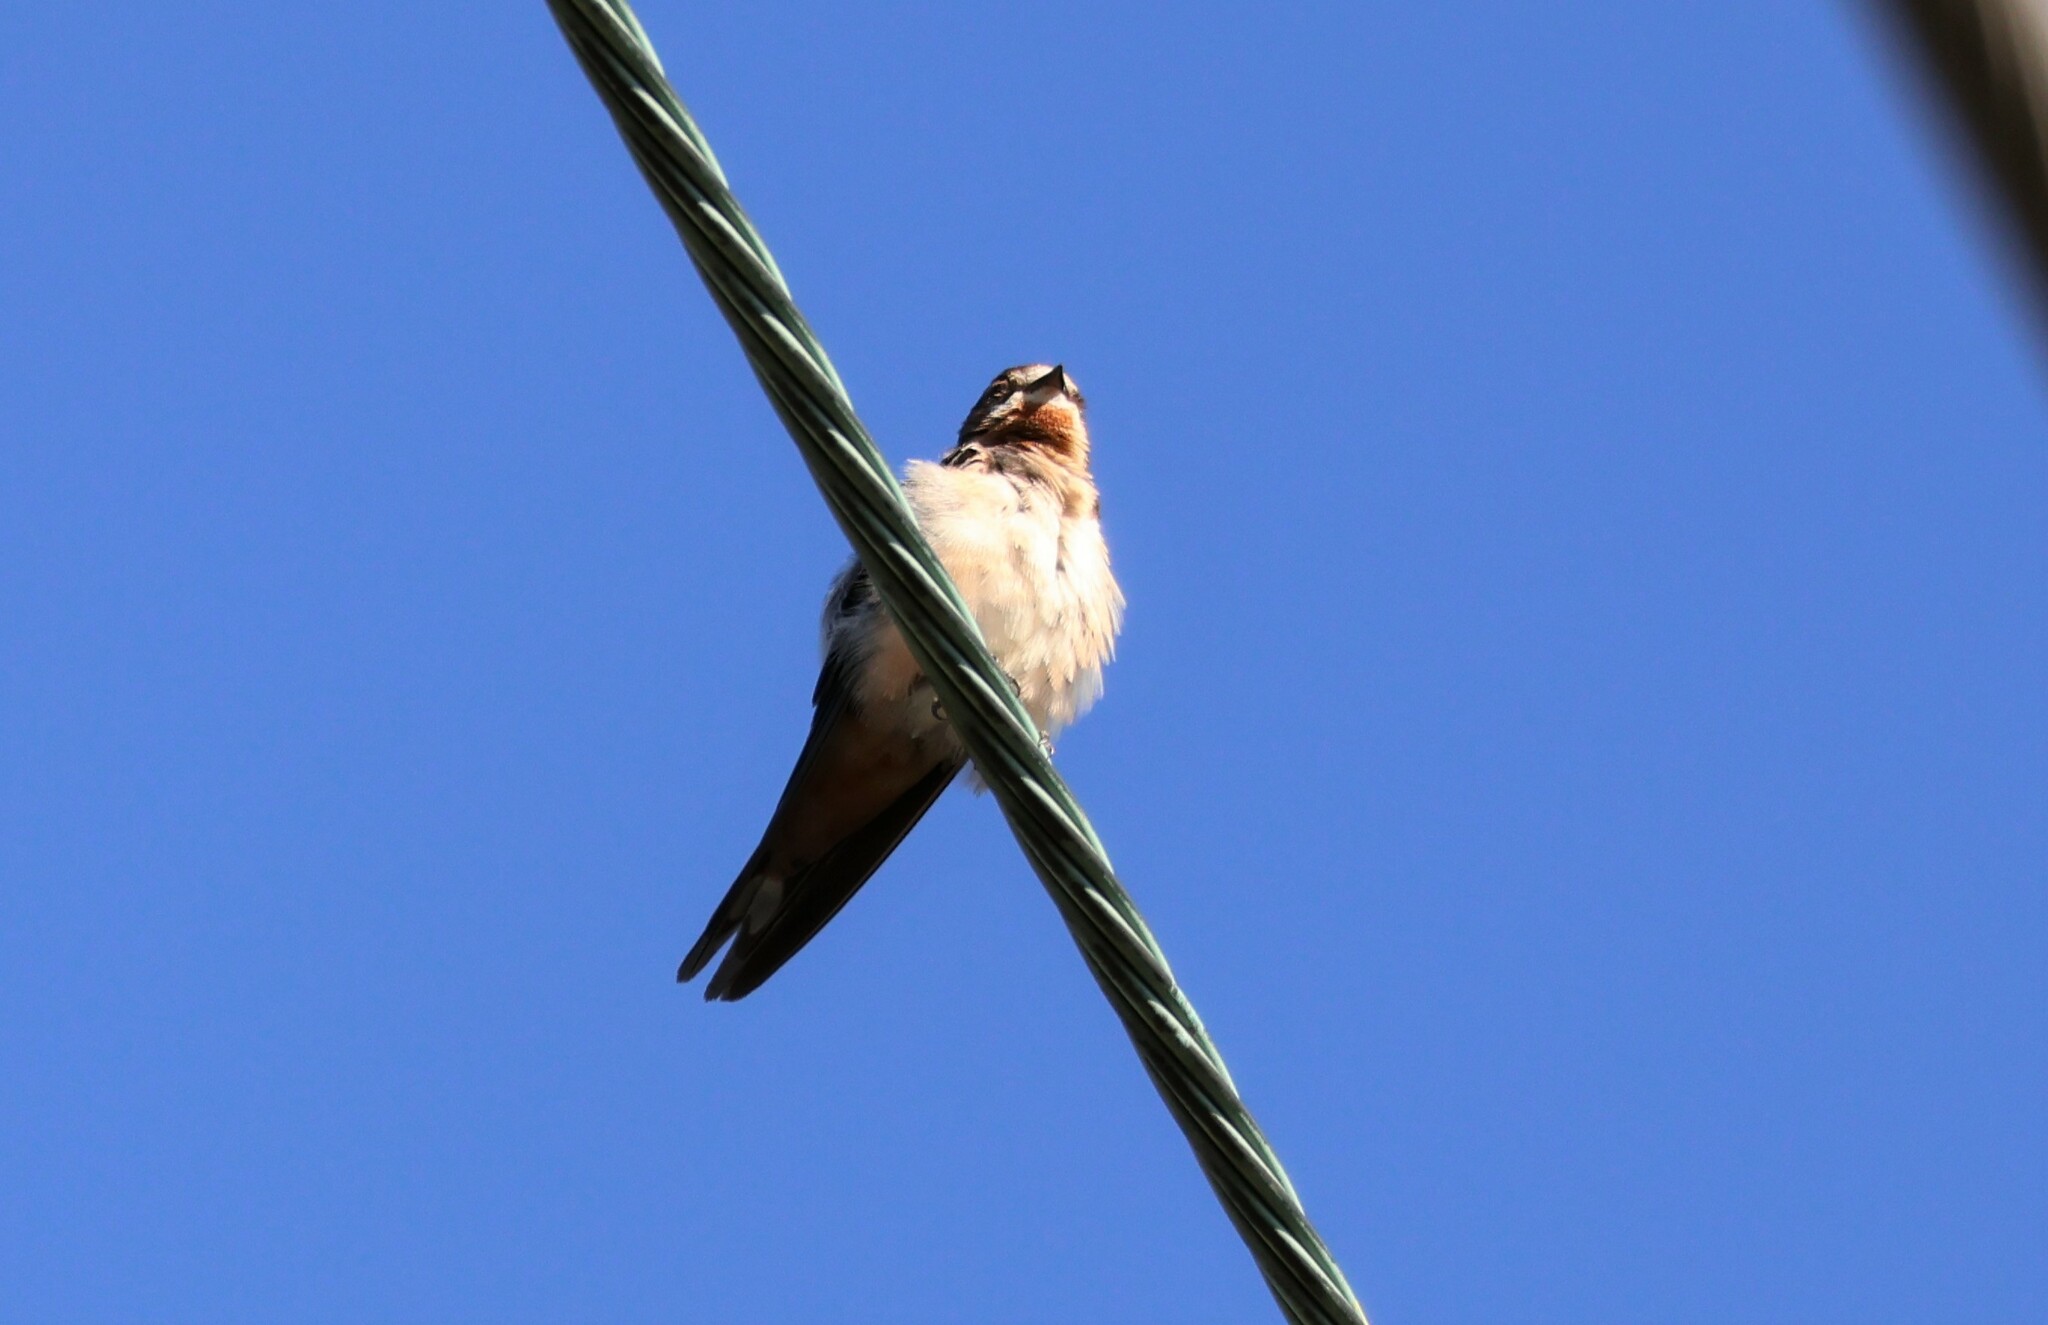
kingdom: Animalia
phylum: Chordata
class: Aves
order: Passeriformes
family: Hirundinidae
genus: Hirundo
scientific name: Hirundo rustica
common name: Barn swallow
